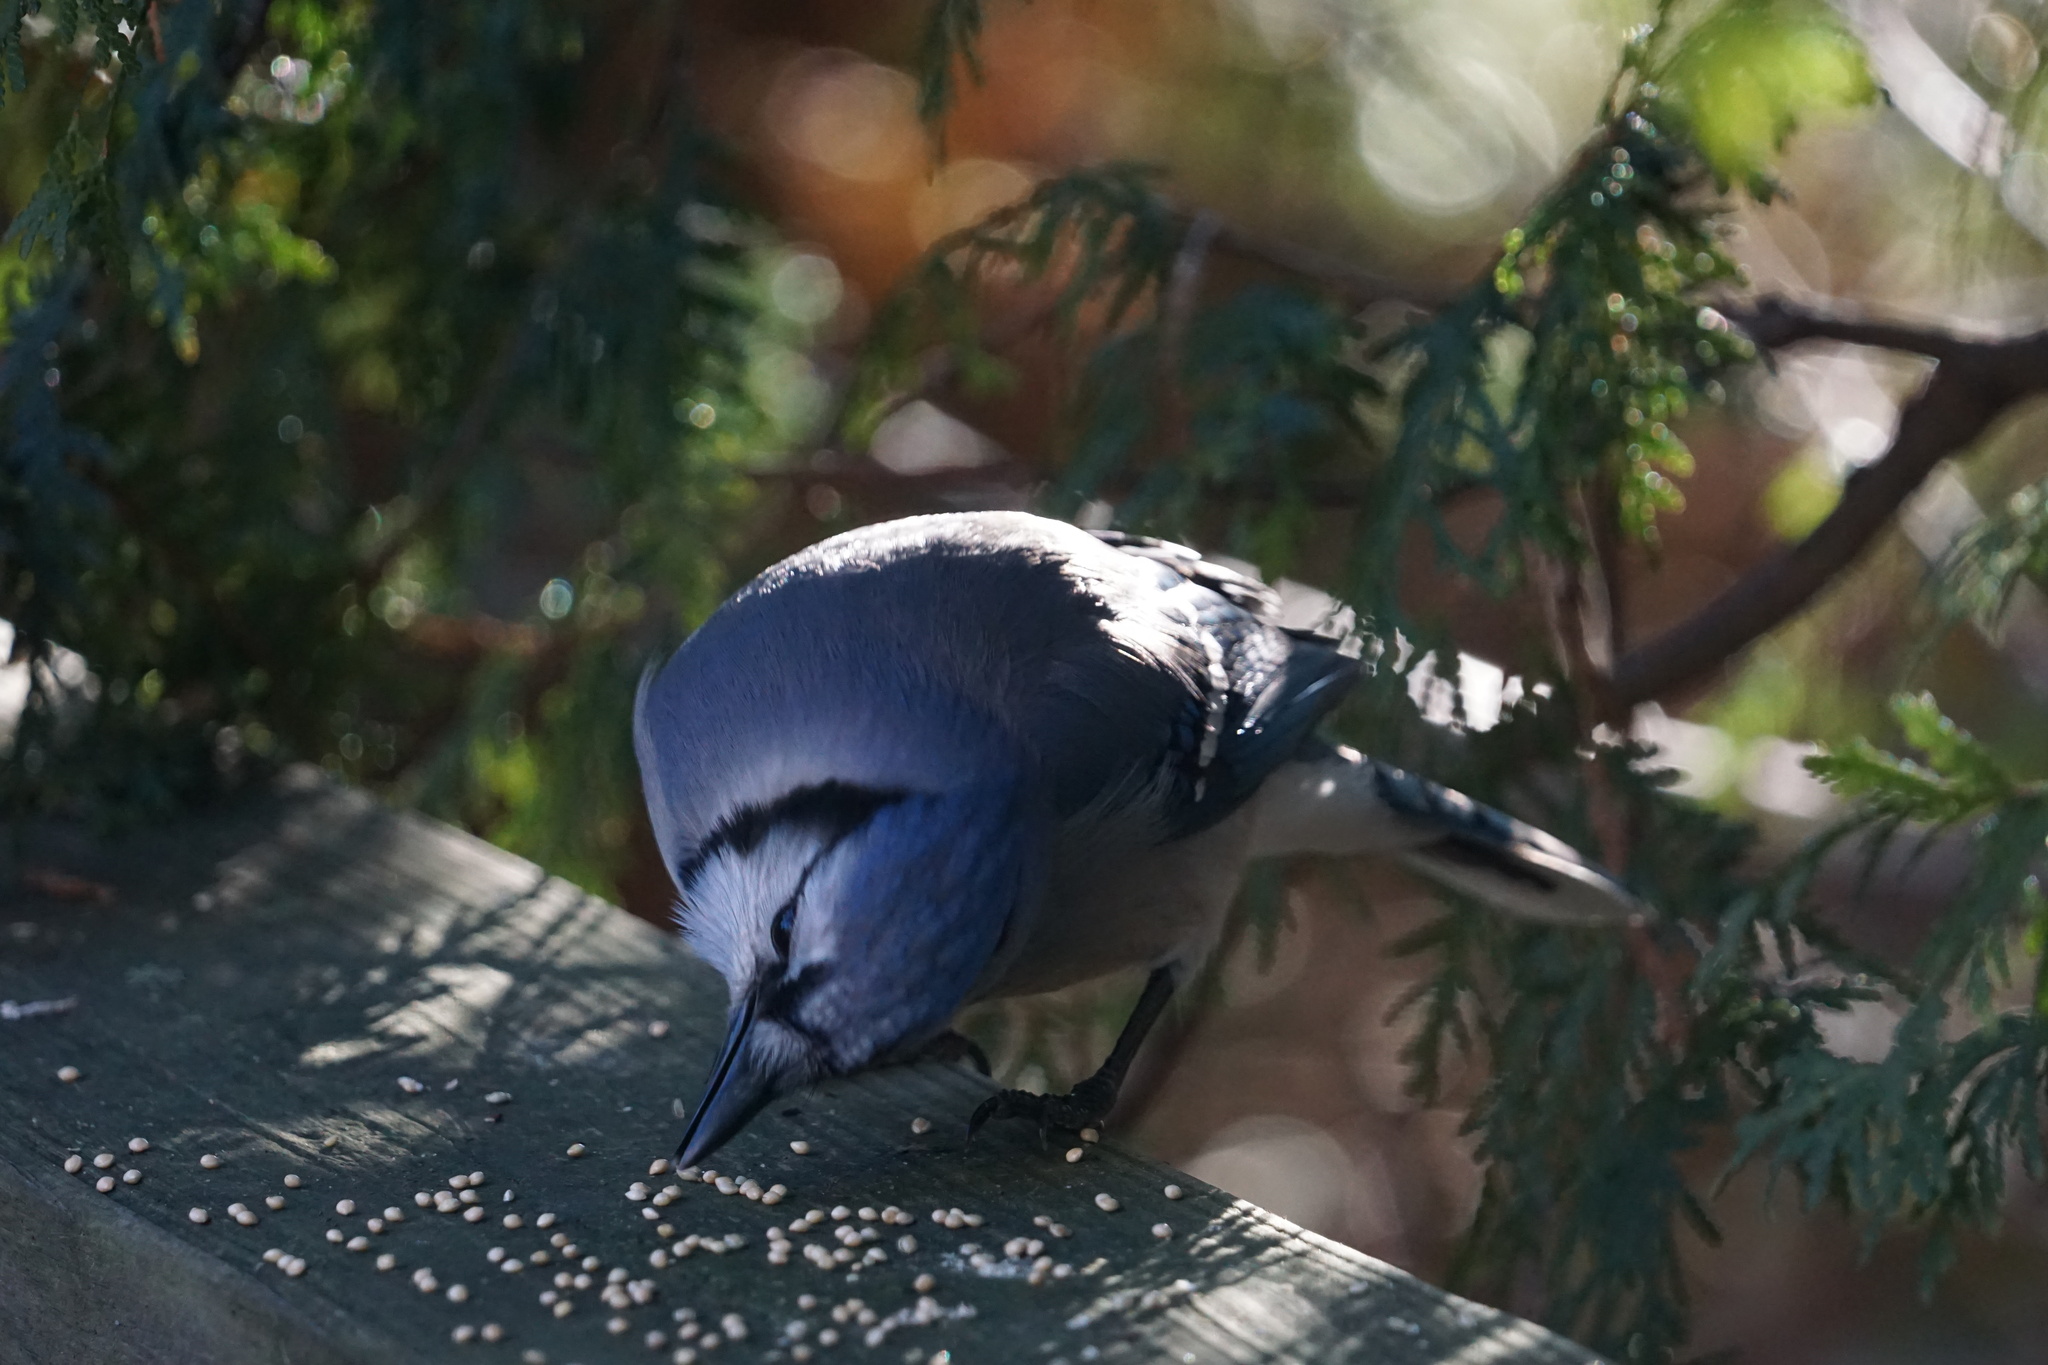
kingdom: Animalia
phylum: Chordata
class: Aves
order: Passeriformes
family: Corvidae
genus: Cyanocitta
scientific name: Cyanocitta cristata
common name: Blue jay
